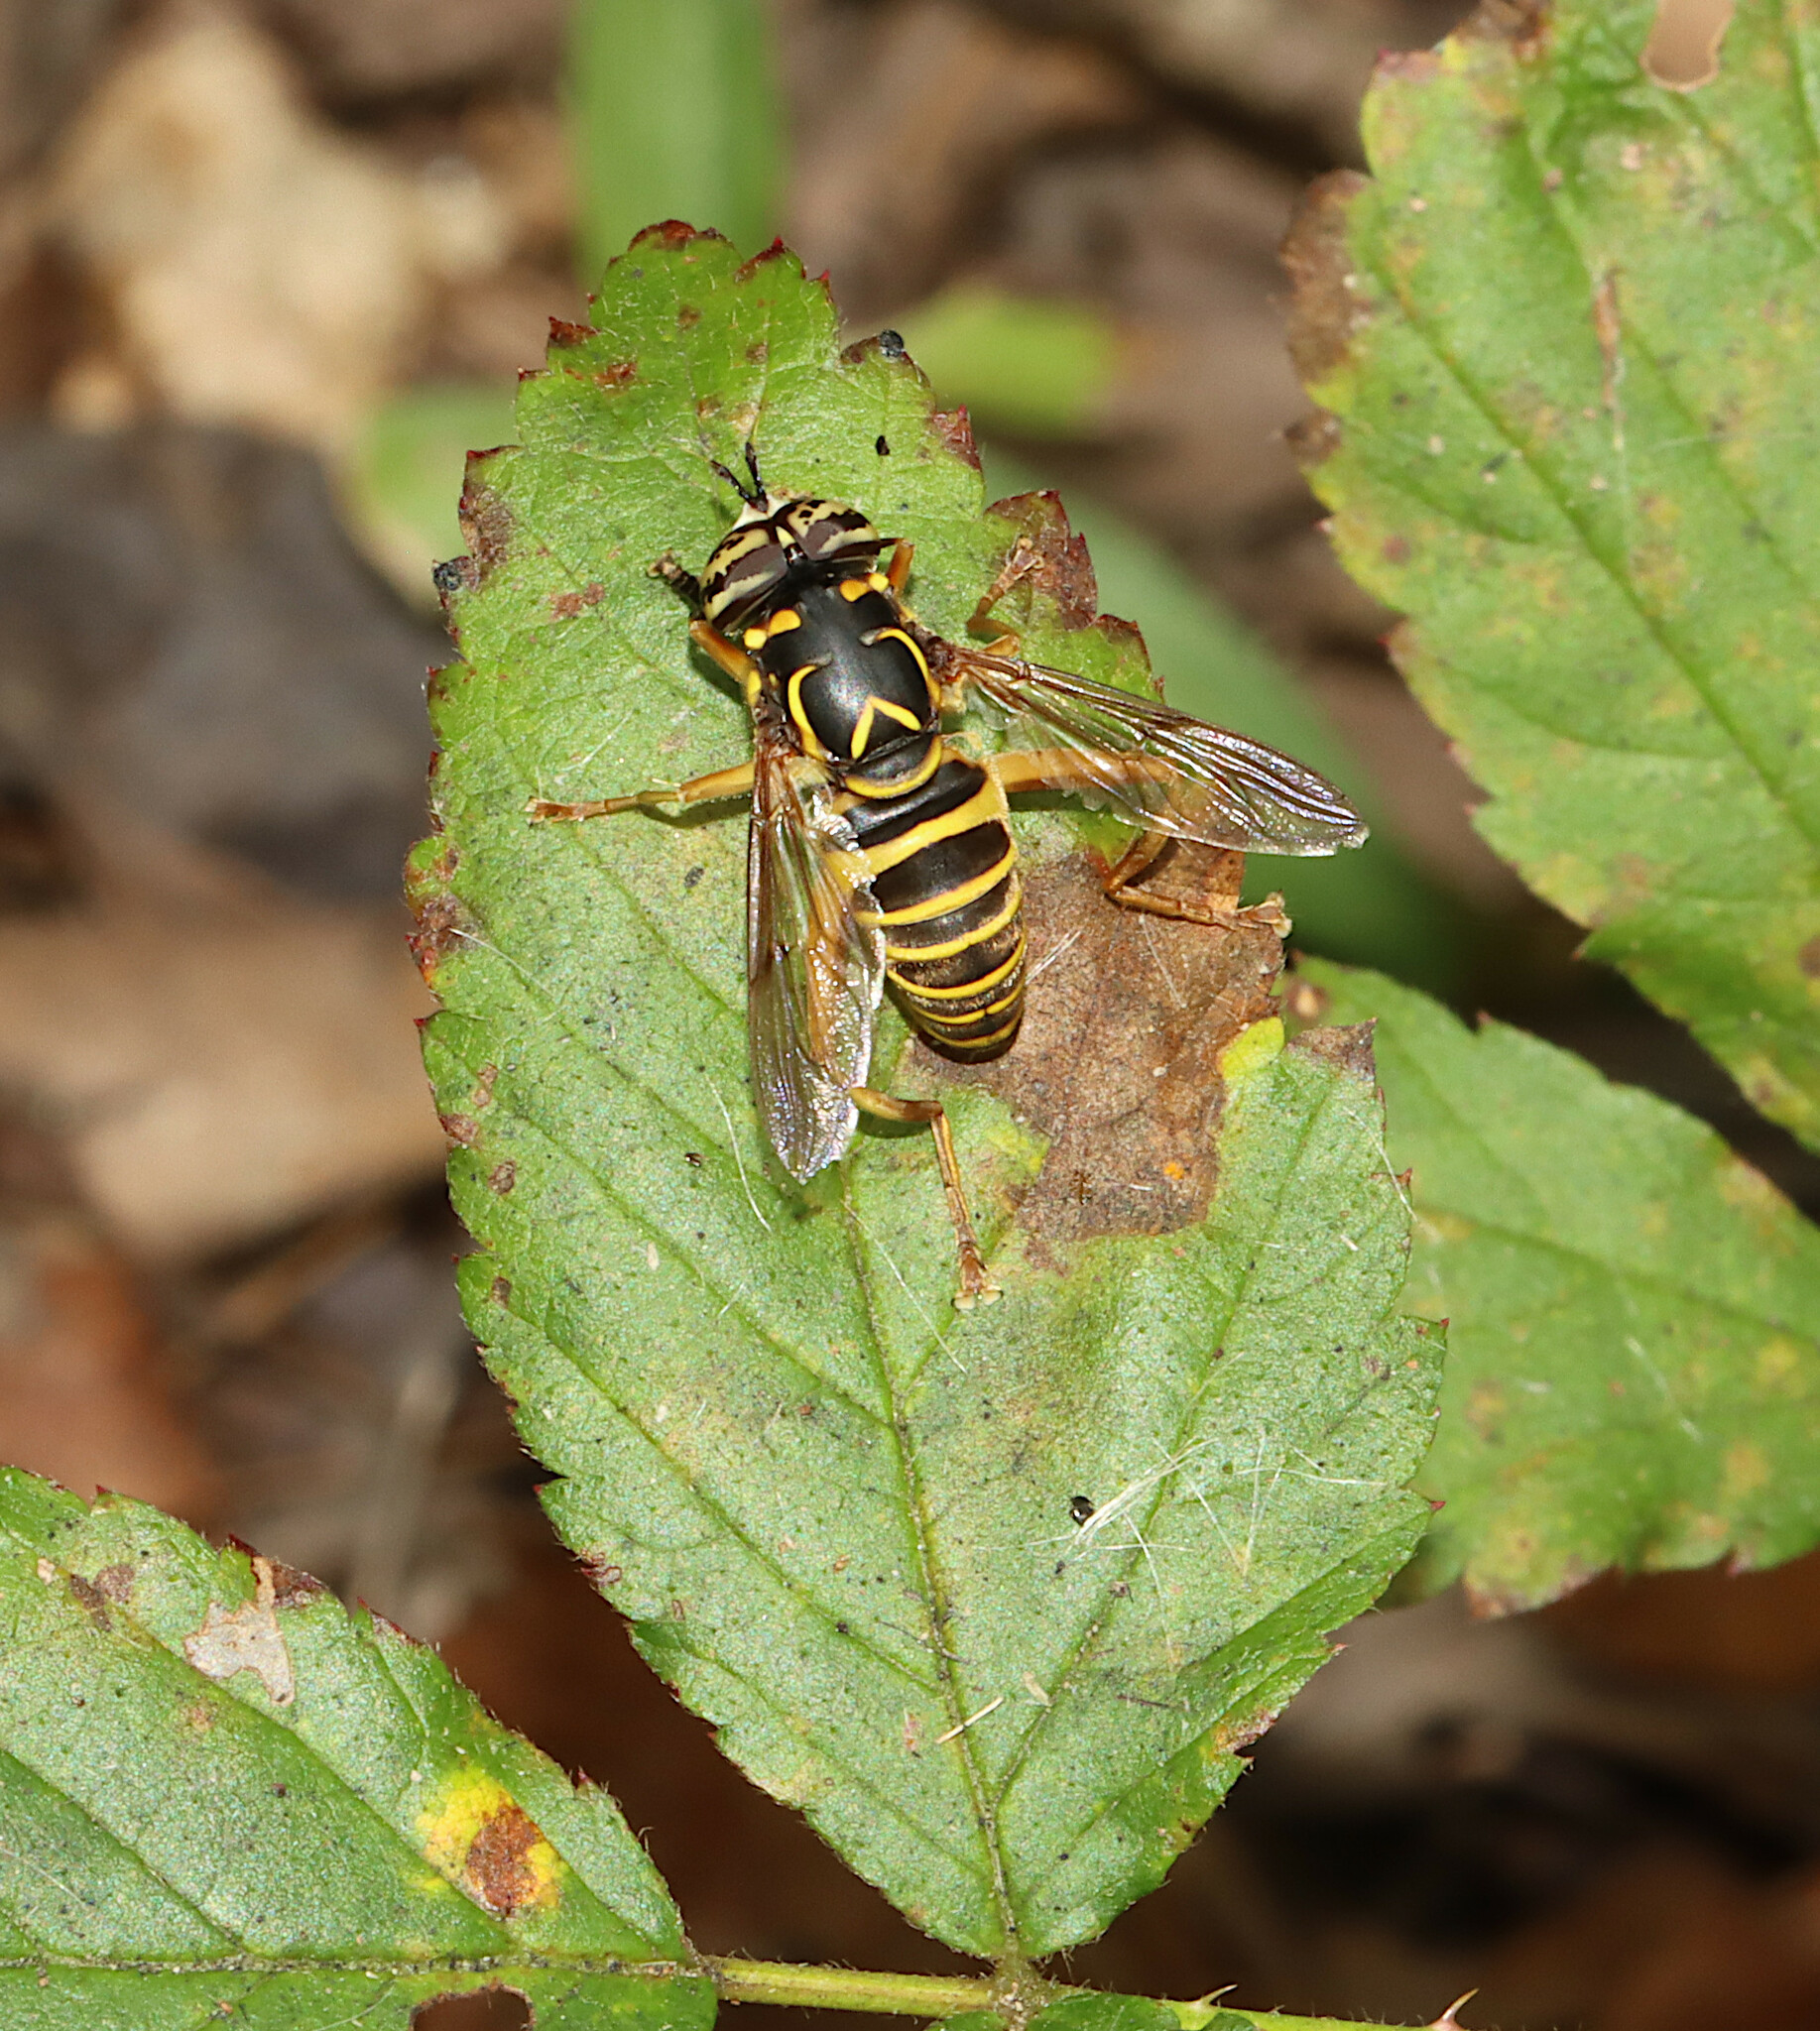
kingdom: Animalia
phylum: Arthropoda
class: Insecta
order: Diptera
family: Syrphidae
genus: Spilomyia
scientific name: Spilomyia longicornis
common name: Eastern hornet fly
